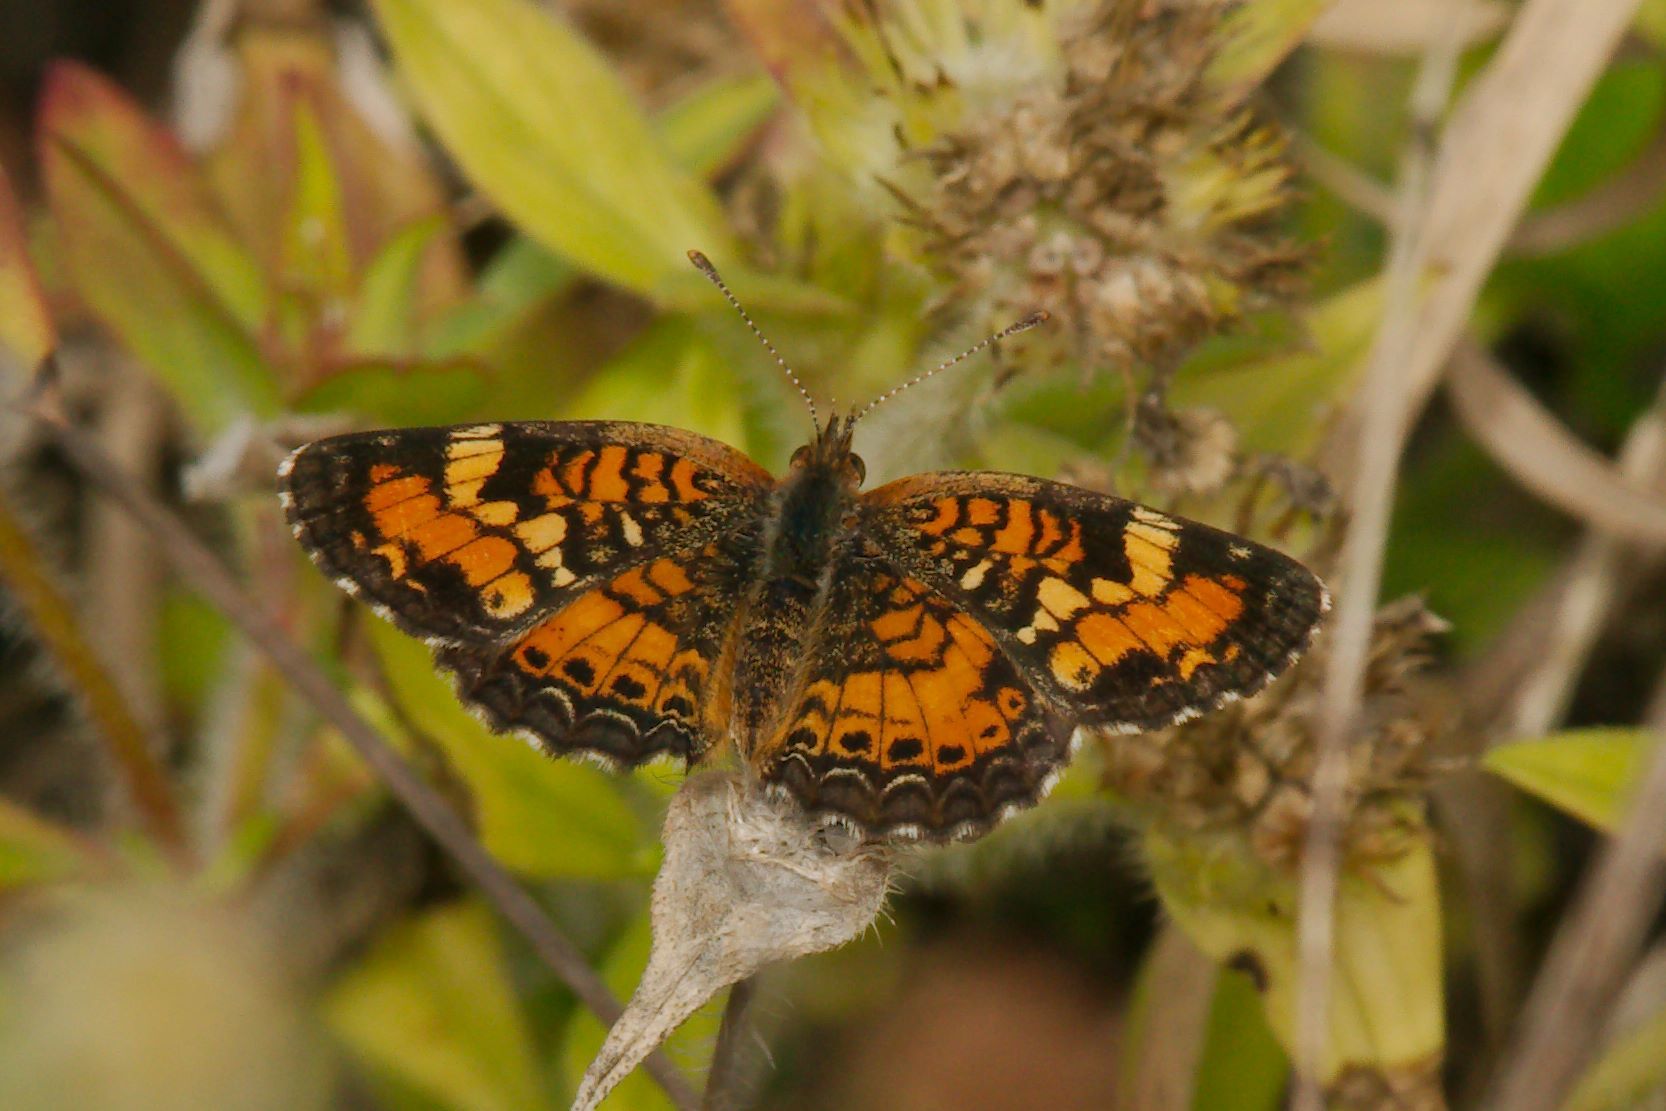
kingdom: Animalia
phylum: Arthropoda
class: Insecta
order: Lepidoptera
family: Nymphalidae
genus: Phyciodes
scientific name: Phyciodes phaon
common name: Phaon crescent
